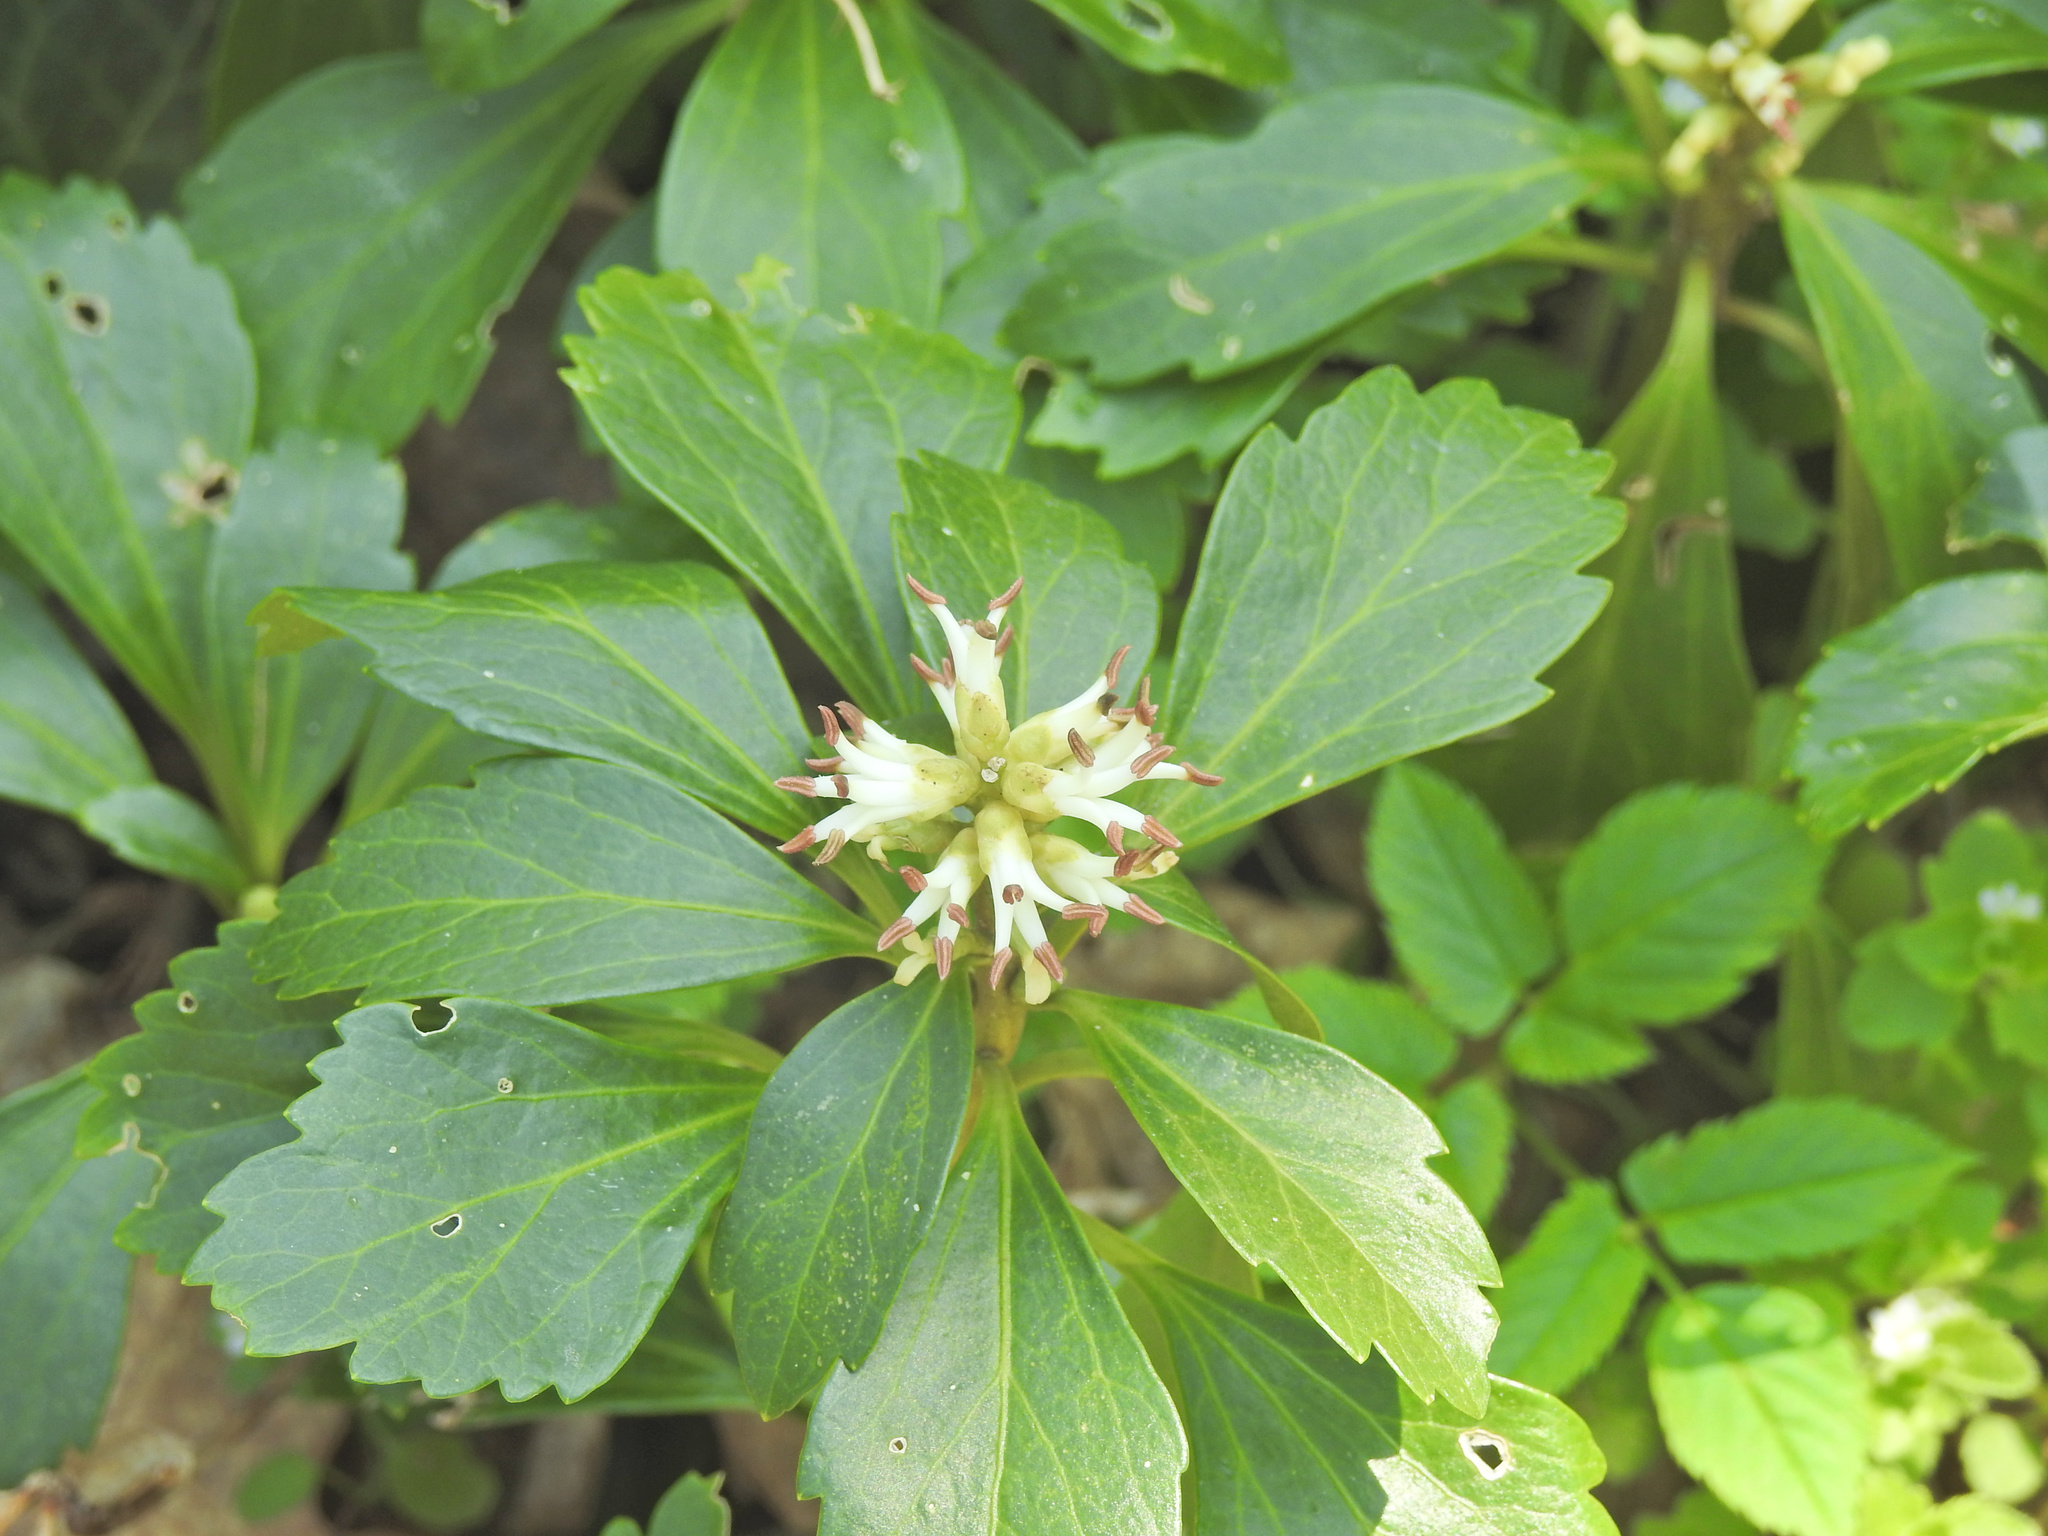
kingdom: Plantae
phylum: Tracheophyta
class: Magnoliopsida
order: Buxales
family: Buxaceae
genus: Pachysandra
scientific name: Pachysandra terminalis
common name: Japanese pachysandra
